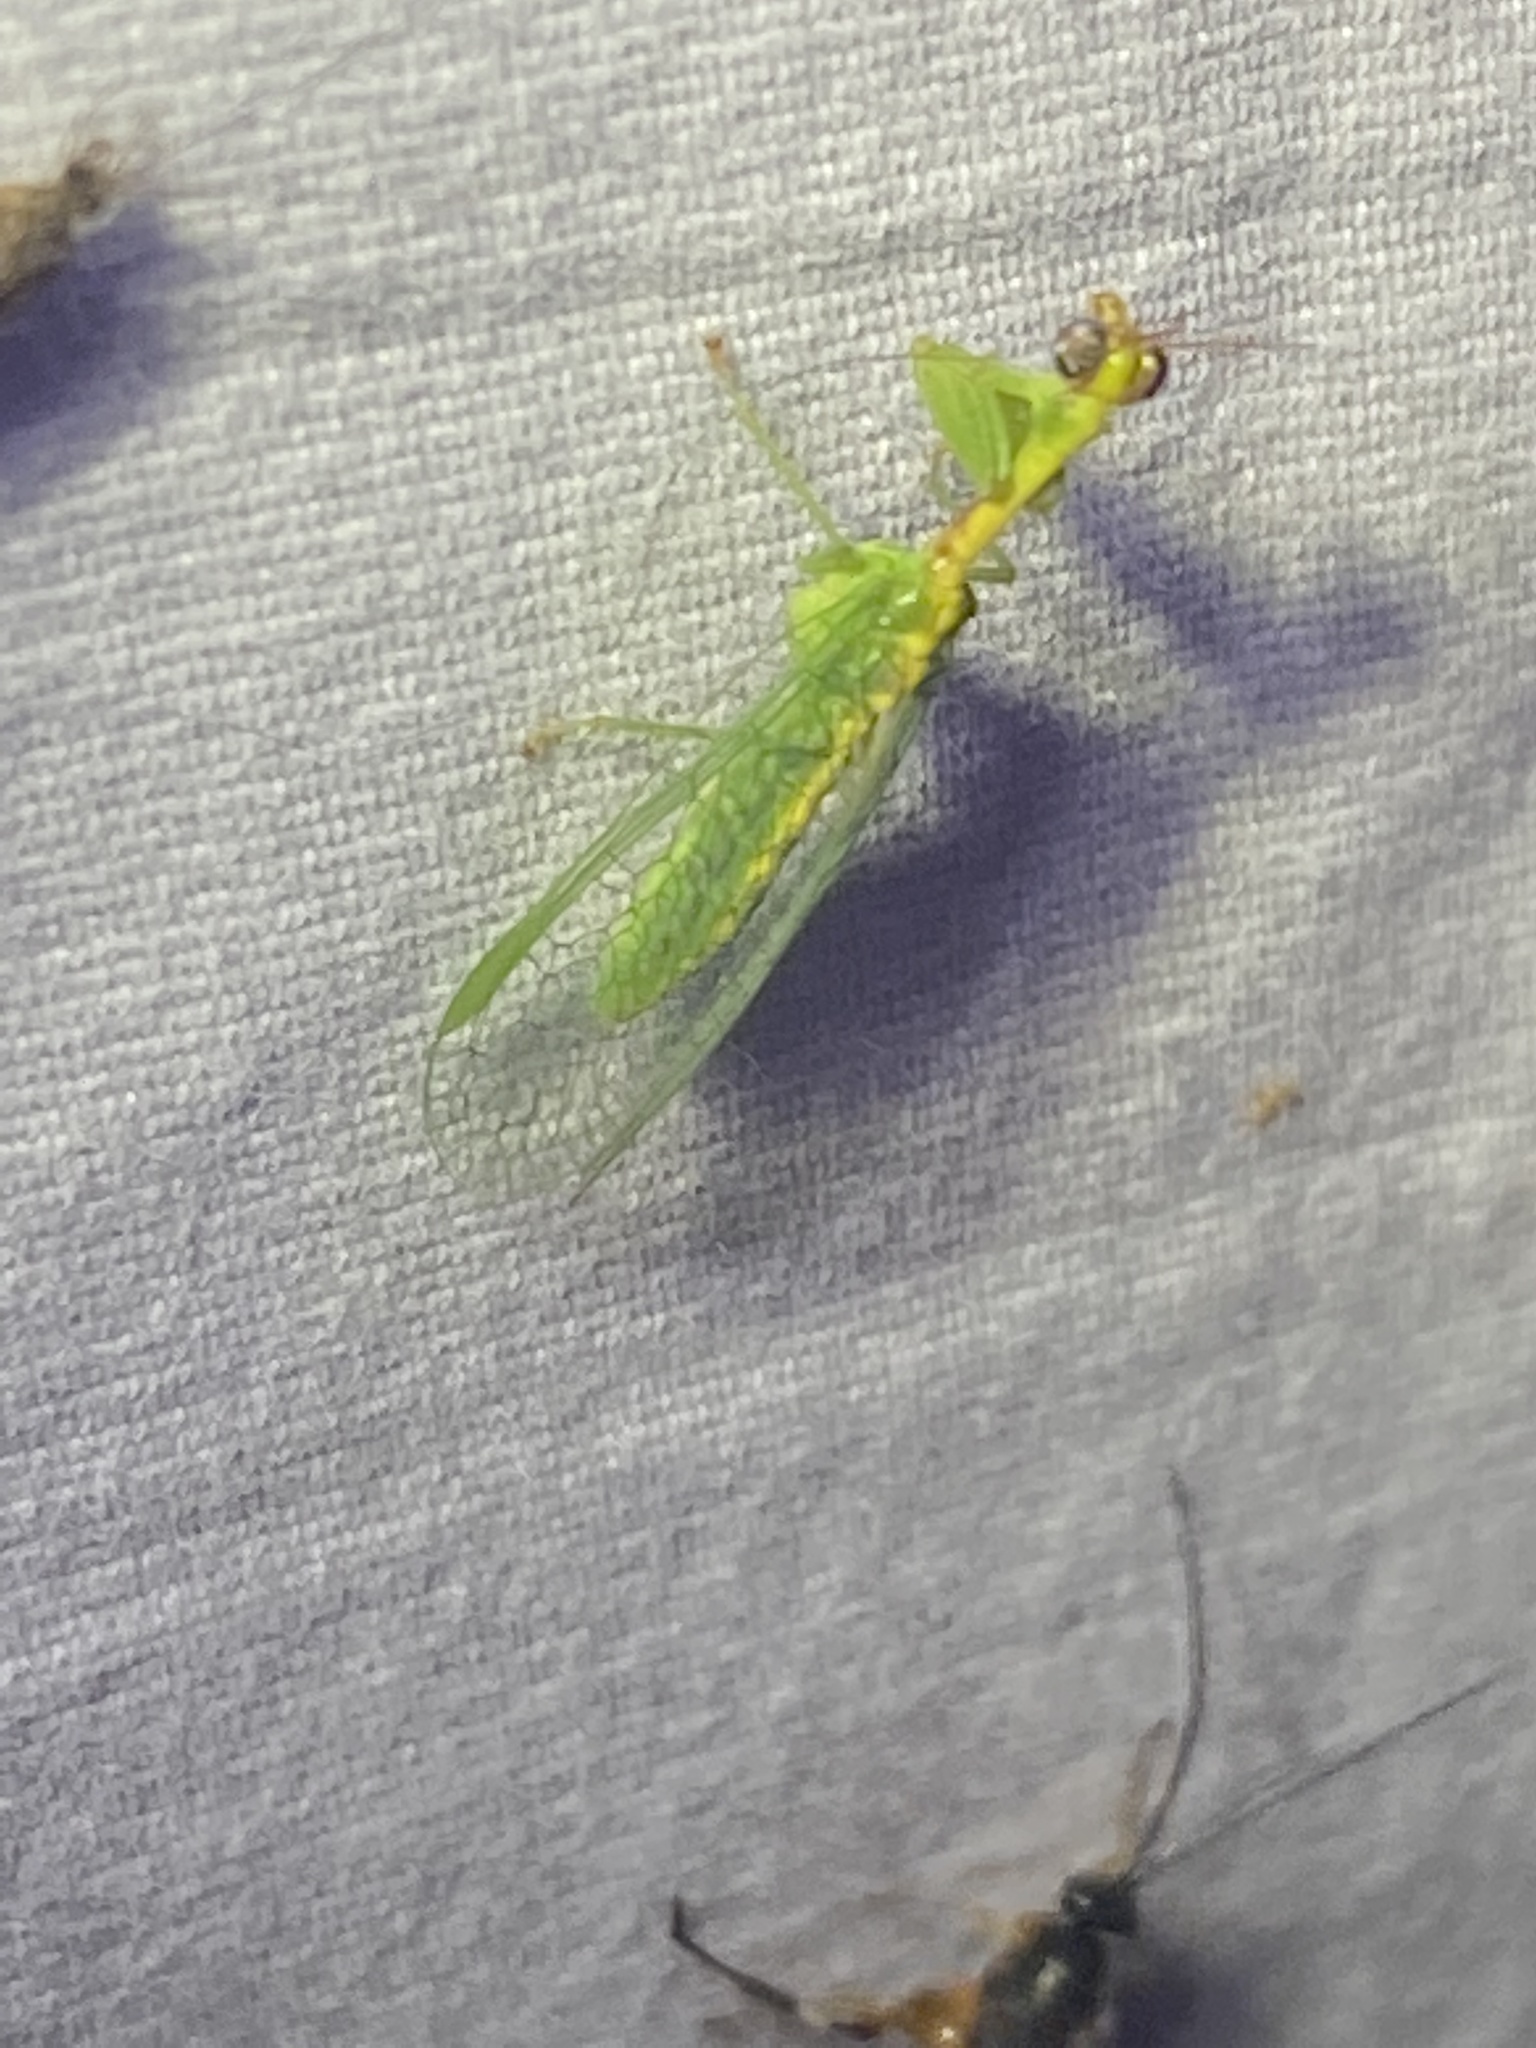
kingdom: Animalia
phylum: Arthropoda
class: Insecta
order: Neuroptera
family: Mantispidae
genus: Zeugomantispa
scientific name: Zeugomantispa minuta
